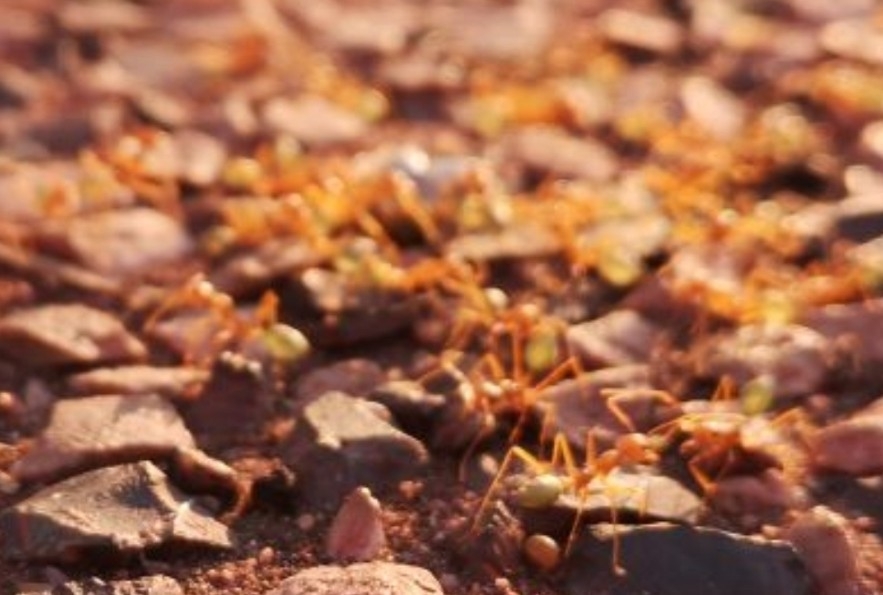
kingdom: Animalia
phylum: Arthropoda
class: Insecta
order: Hymenoptera
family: Formicidae
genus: Oecophylla
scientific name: Oecophylla smaragdina
